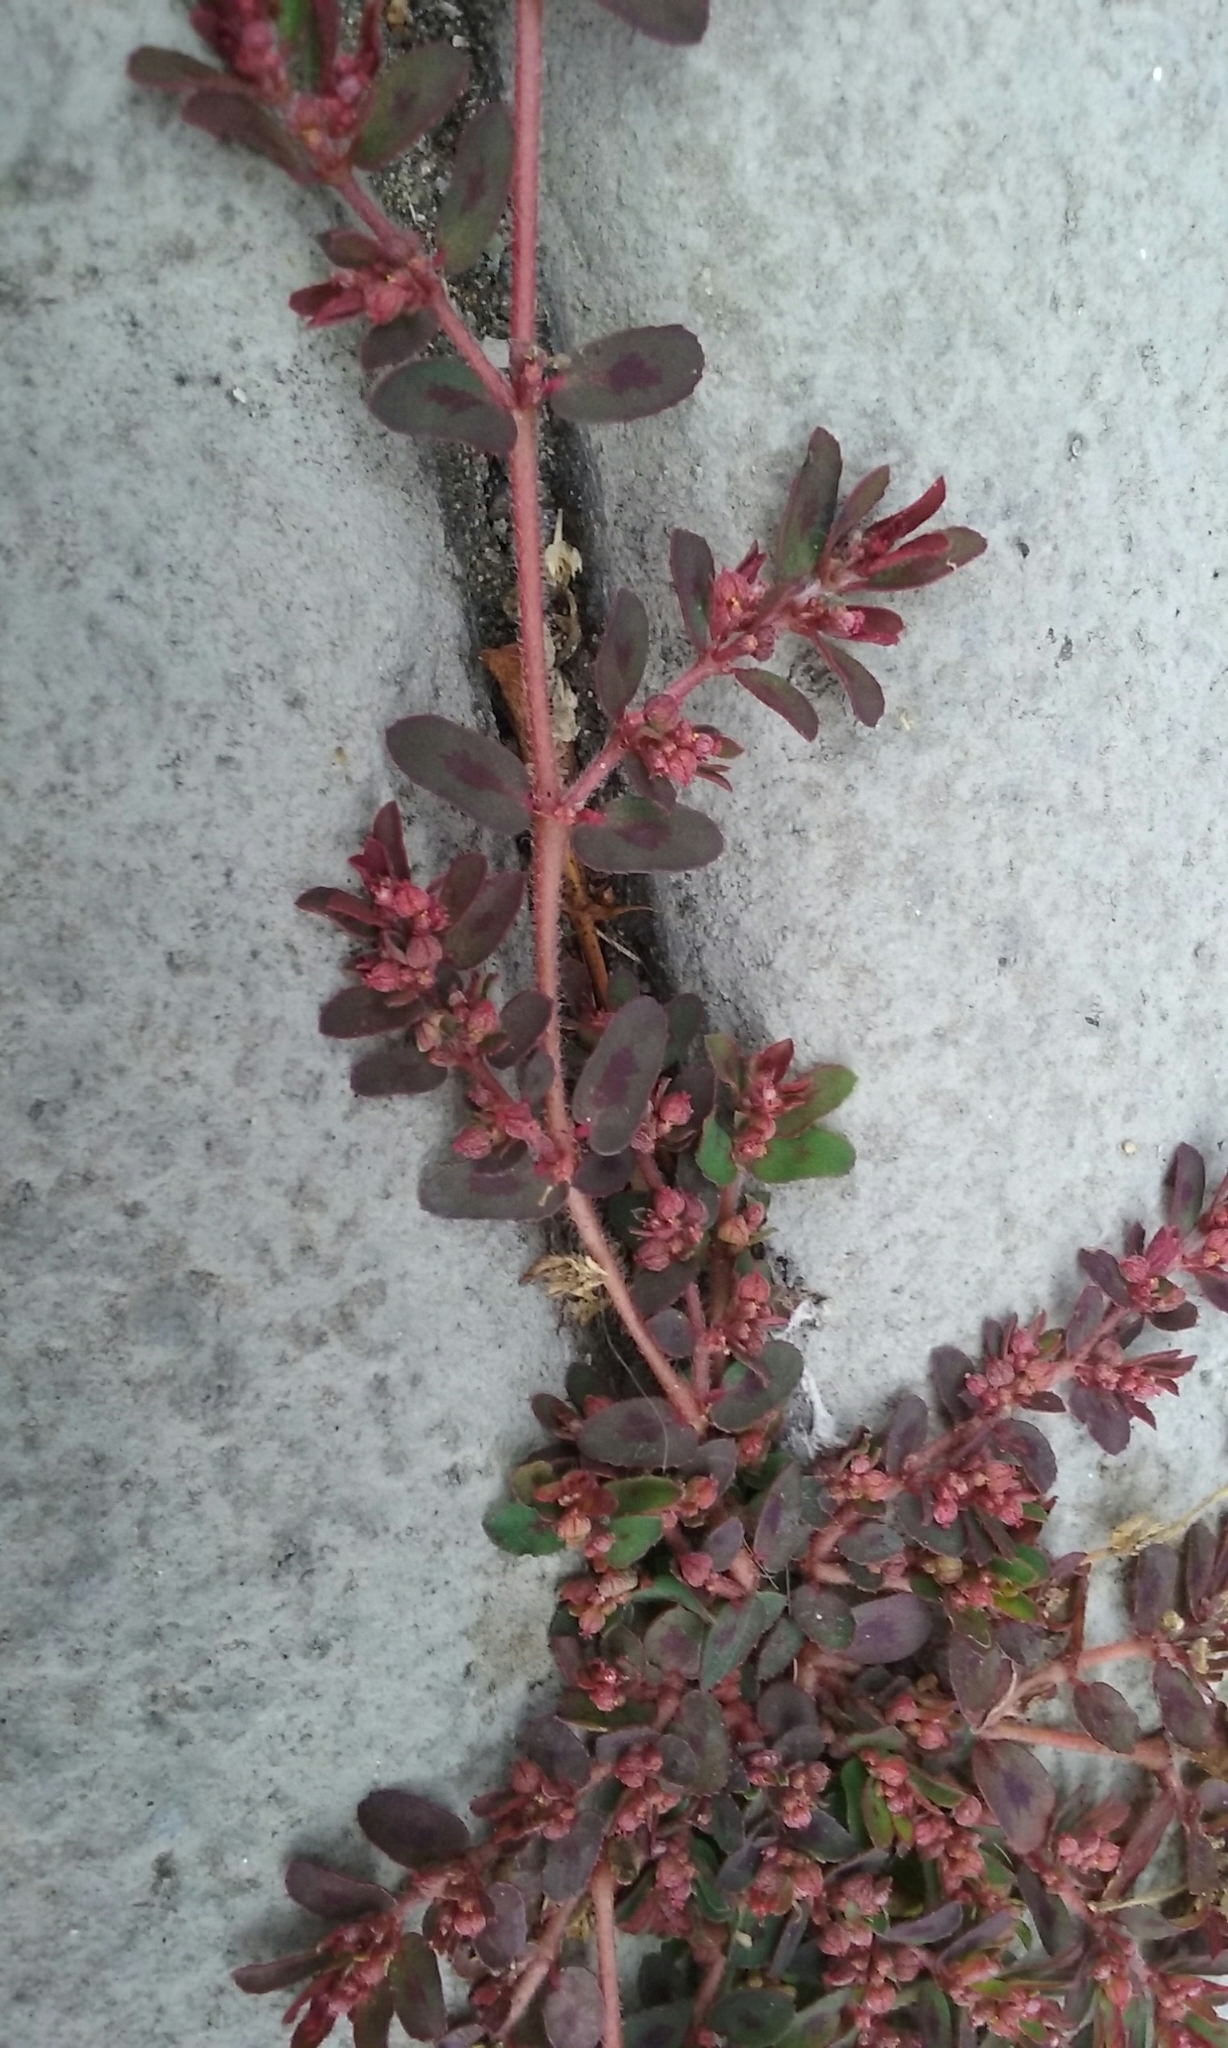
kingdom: Plantae
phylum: Tracheophyta
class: Magnoliopsida
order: Malpighiales
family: Euphorbiaceae
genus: Euphorbia
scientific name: Euphorbia maculata
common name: Spotted spurge
